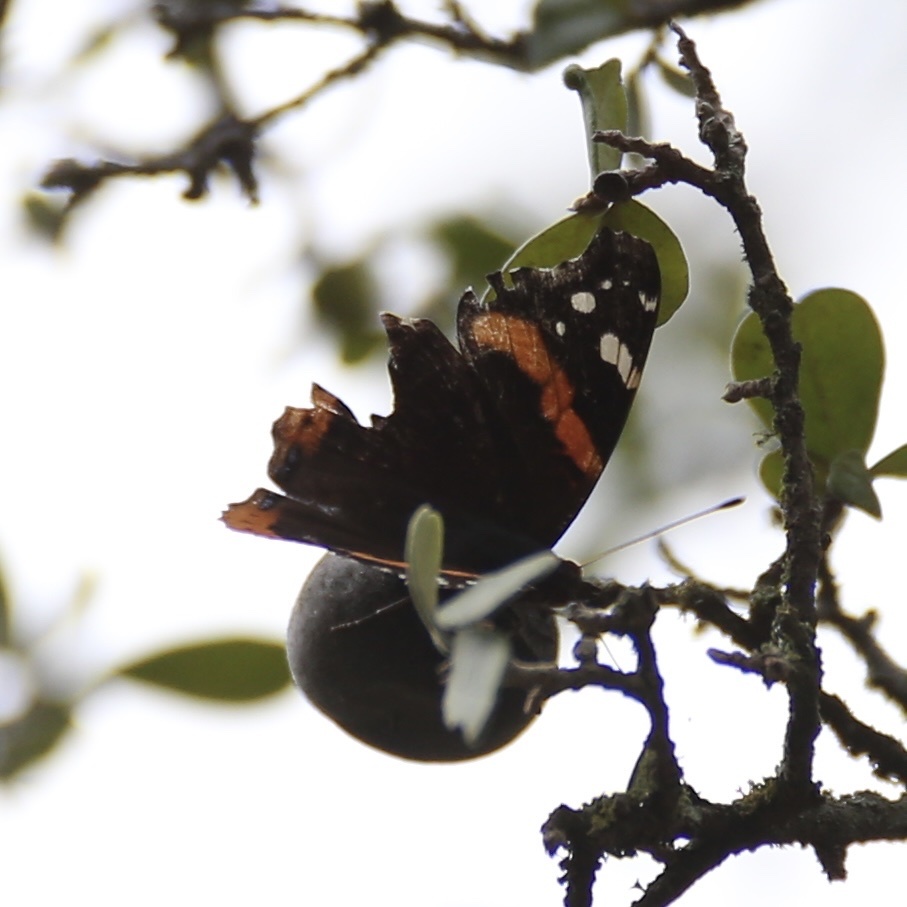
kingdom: Animalia
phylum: Arthropoda
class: Insecta
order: Lepidoptera
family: Nymphalidae
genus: Vanessa
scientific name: Vanessa atalanta
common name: Red admiral
